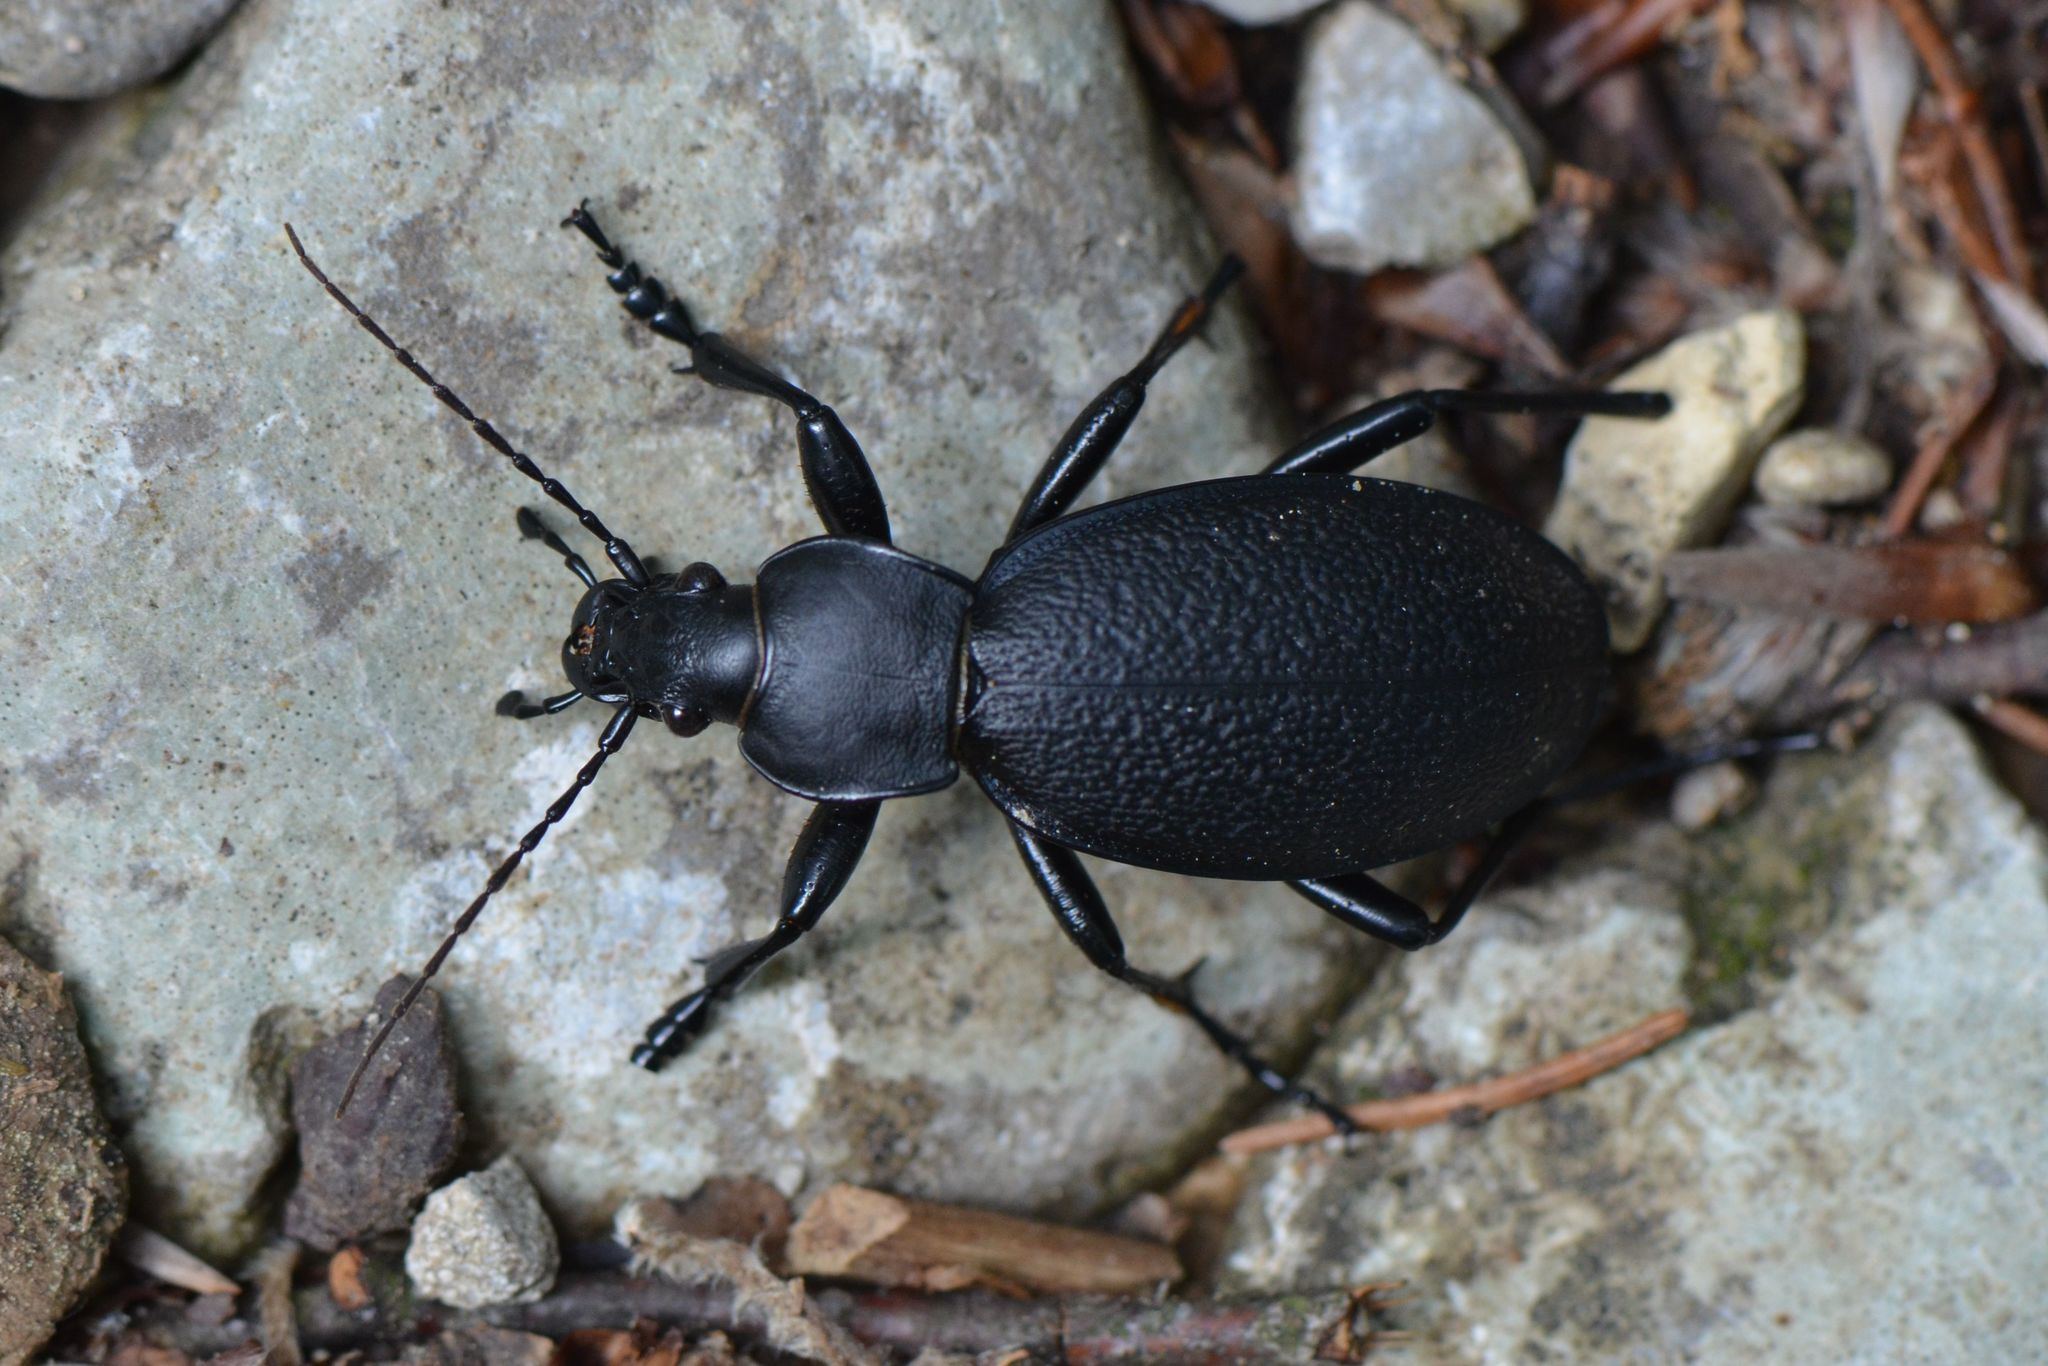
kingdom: Animalia
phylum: Arthropoda
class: Insecta
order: Coleoptera
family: Carabidae
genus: Carabus
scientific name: Carabus coriaceus
